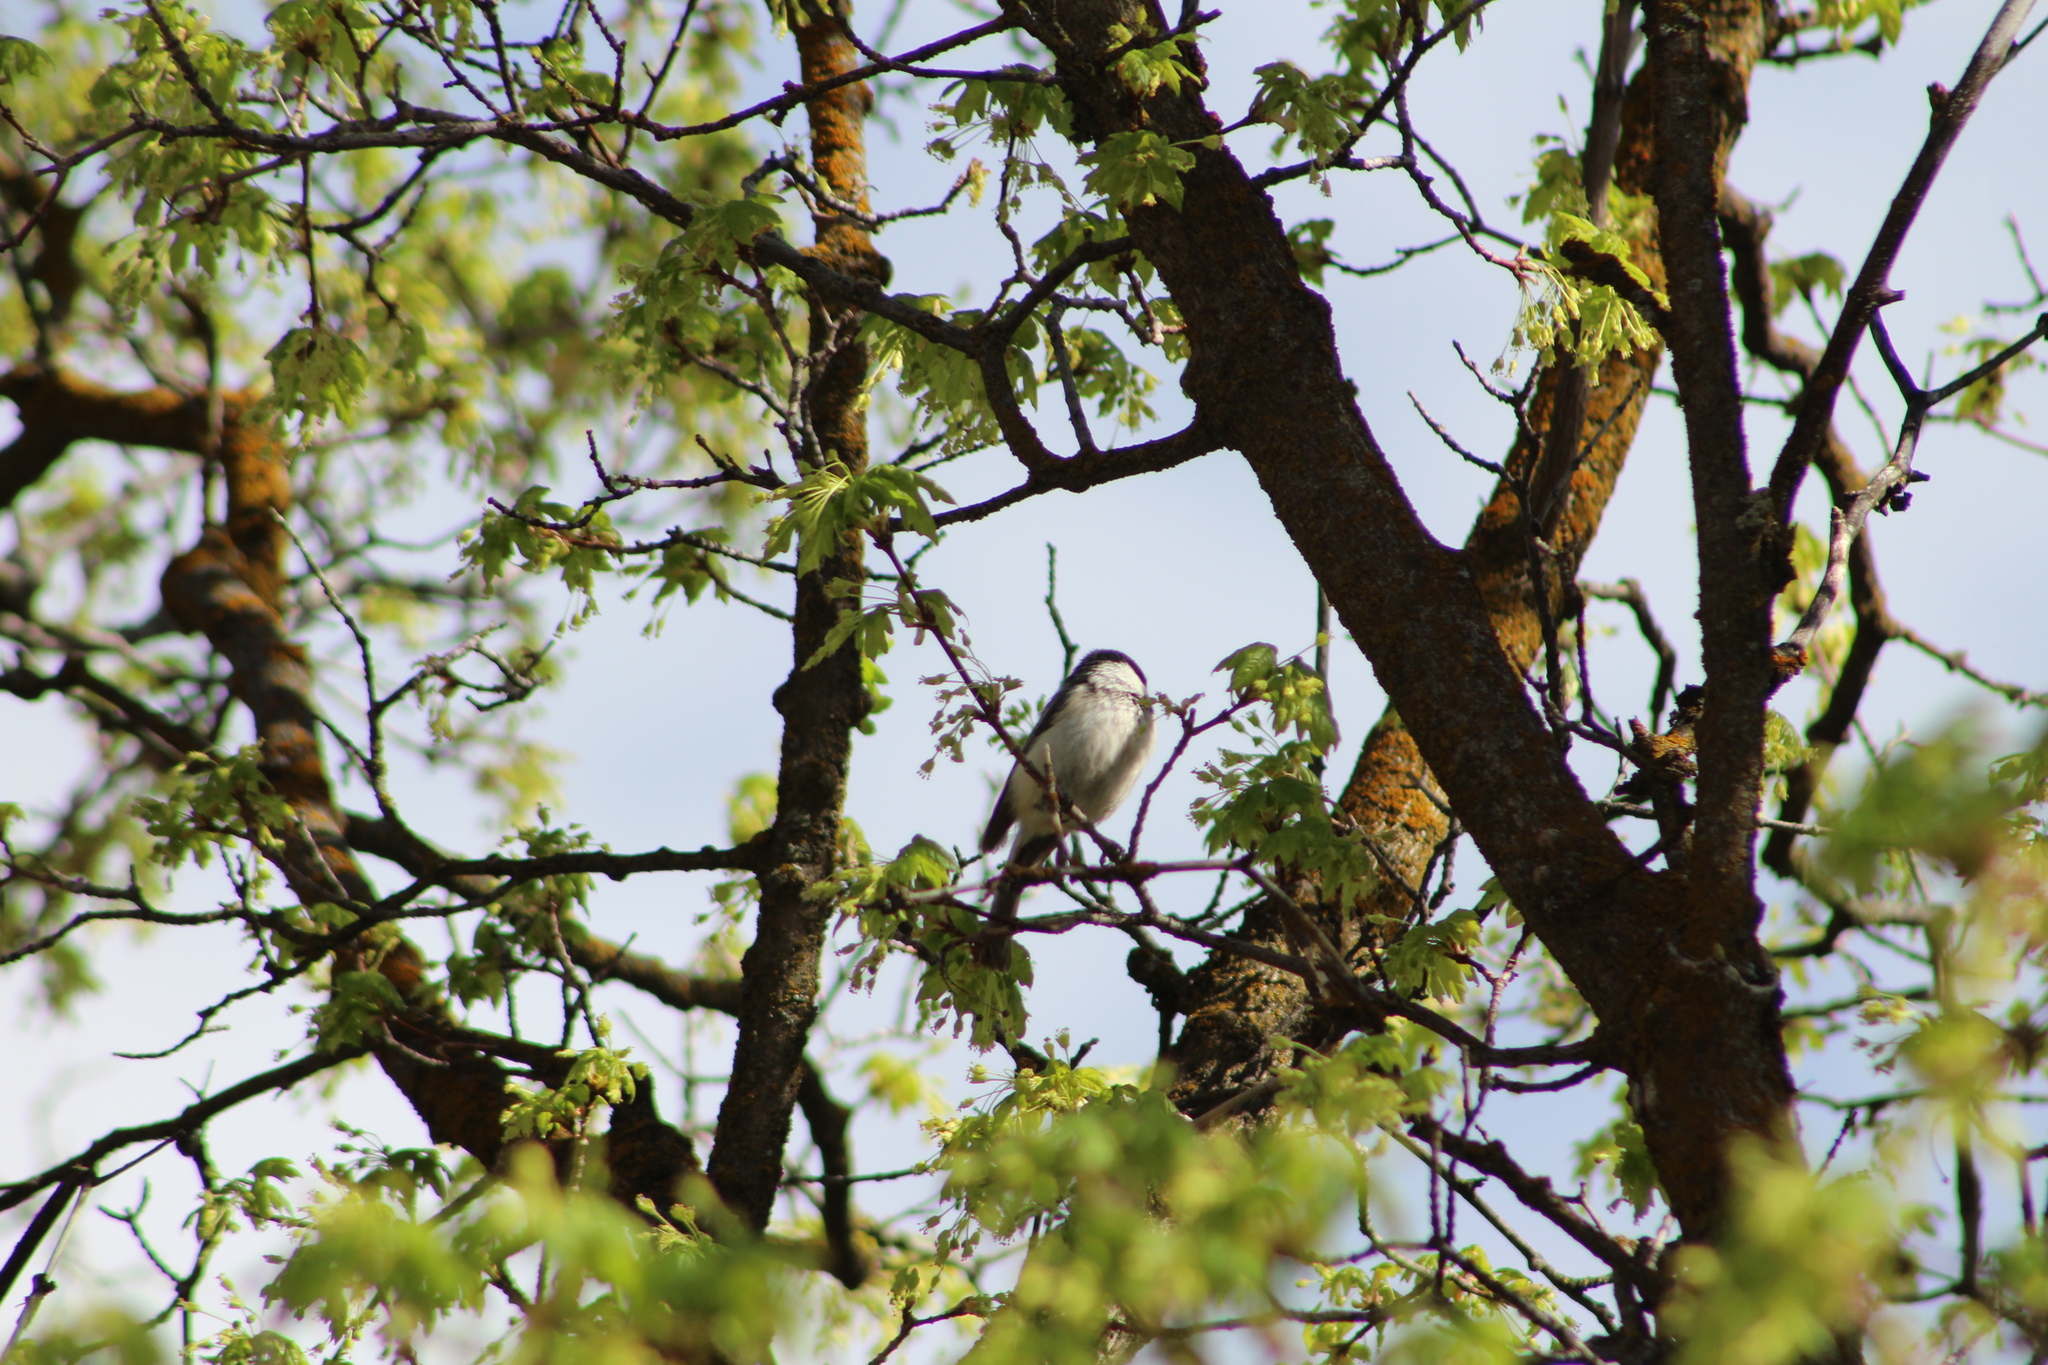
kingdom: Animalia
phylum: Chordata
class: Aves
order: Passeriformes
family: Paridae
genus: Poecile
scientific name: Poecile atricapillus
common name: Black-capped chickadee
